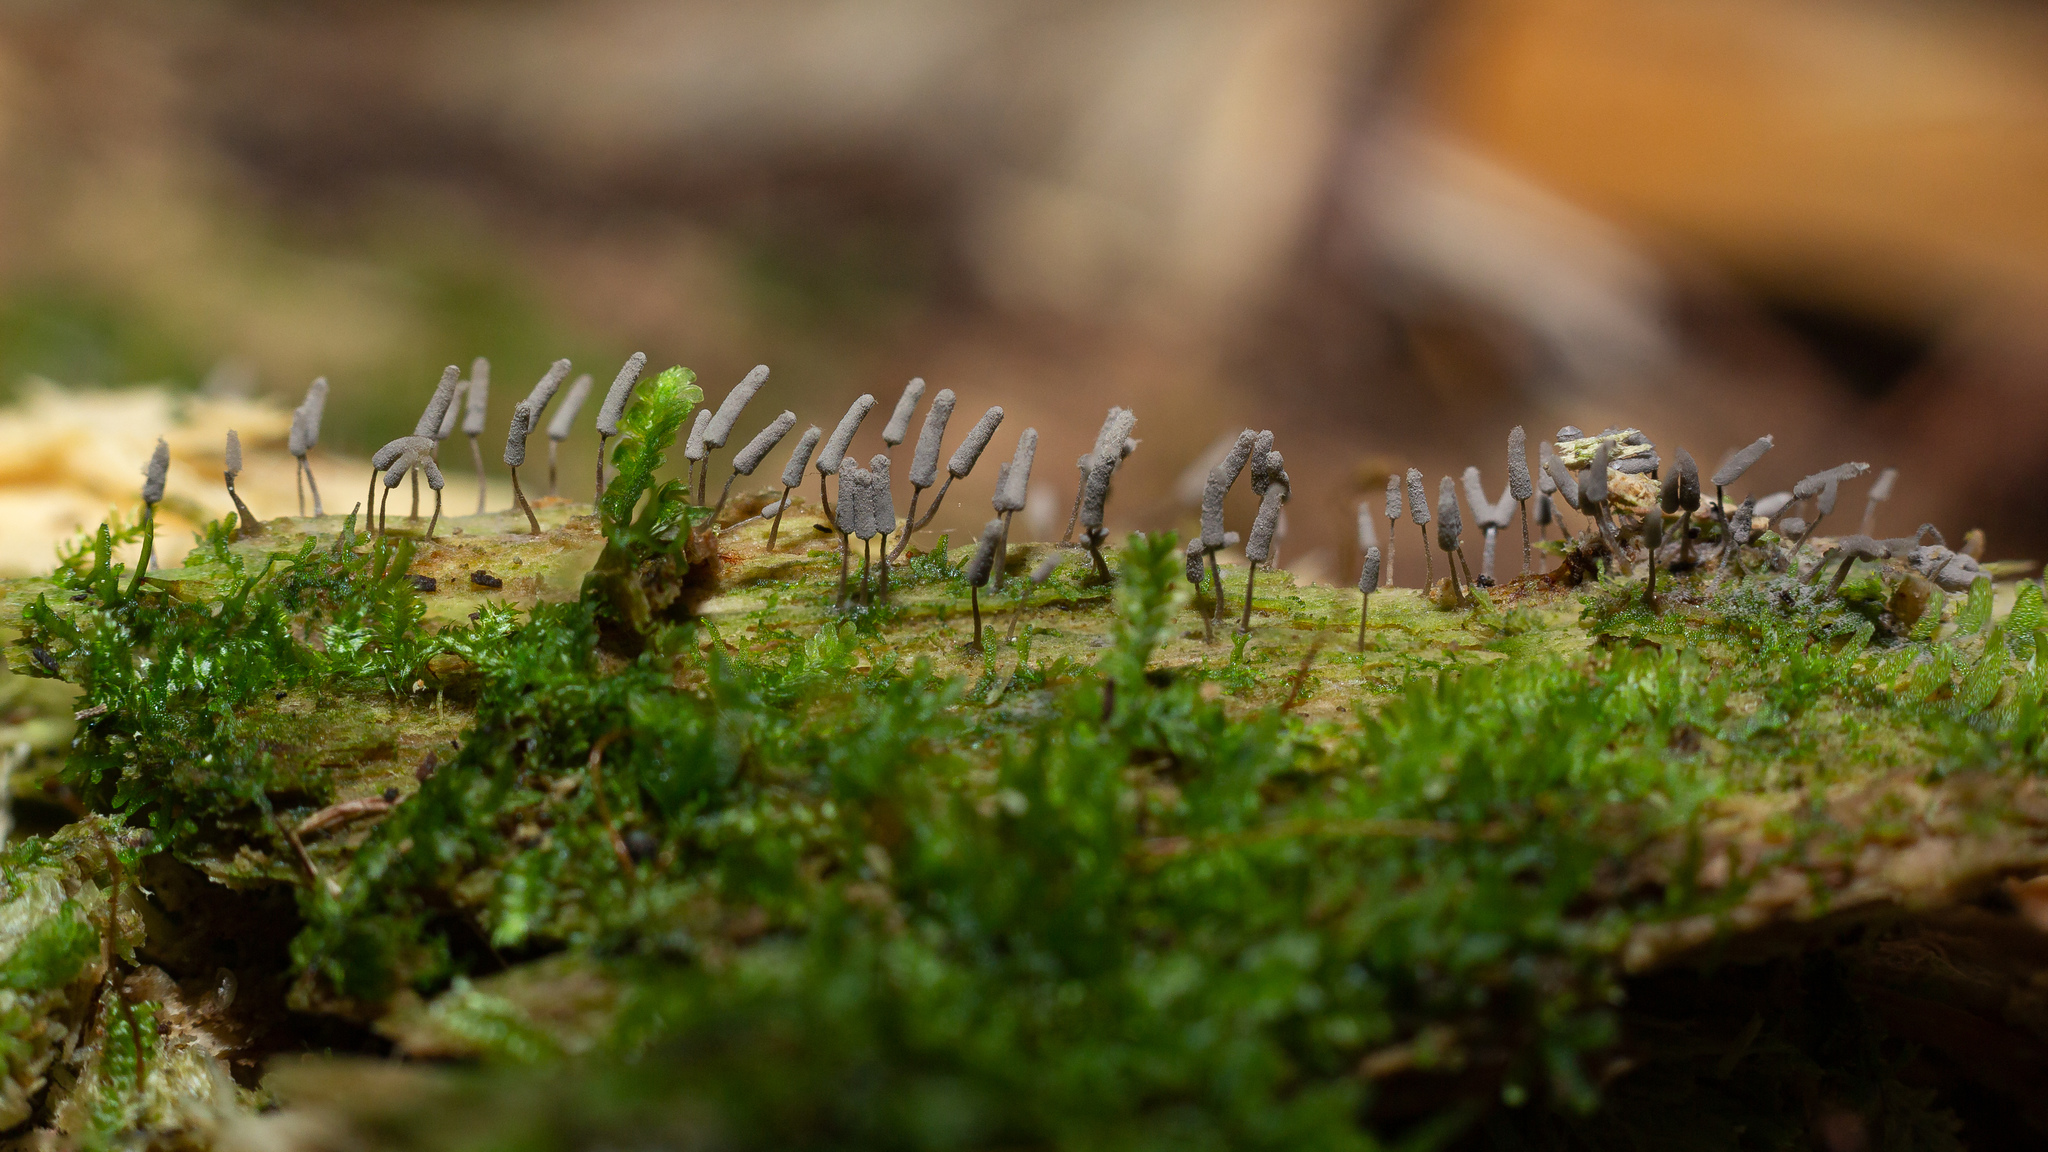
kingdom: Protozoa
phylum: Mycetozoa
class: Myxomycetes
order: Trichiales
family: Arcyriaceae
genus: Arcyria
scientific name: Arcyria cinerea
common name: White carnival candy slime mold
